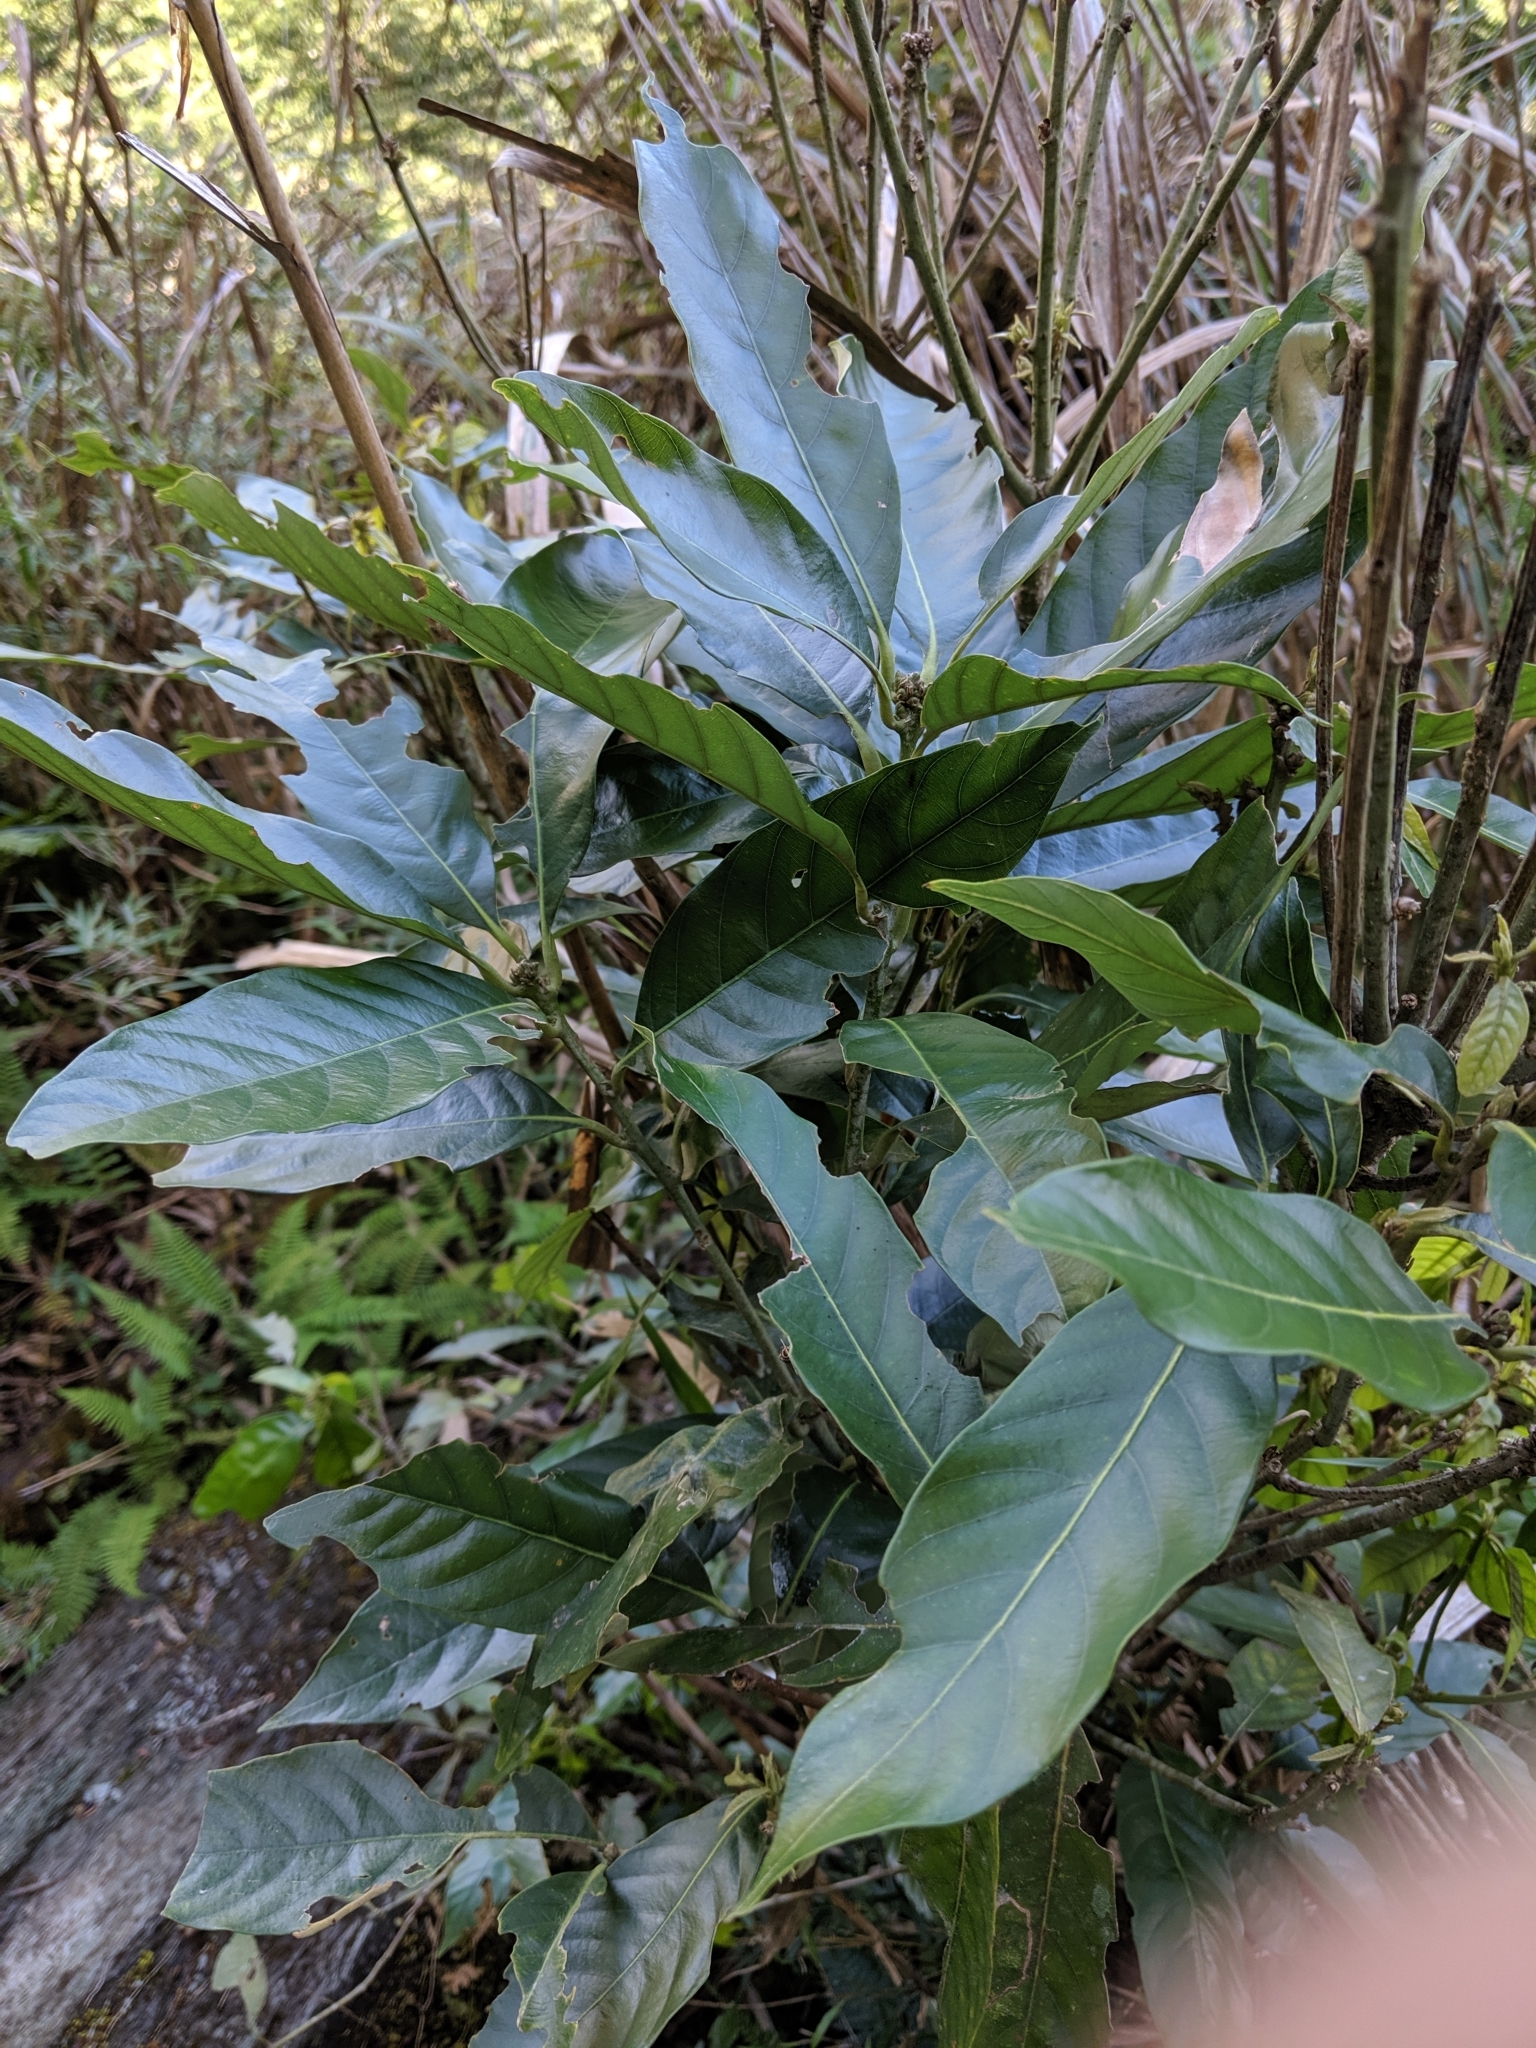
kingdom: Plantae
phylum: Tracheophyta
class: Magnoliopsida
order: Fagales
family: Fagaceae
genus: Lithocarpus
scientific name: Lithocarpus lepidocarpus
